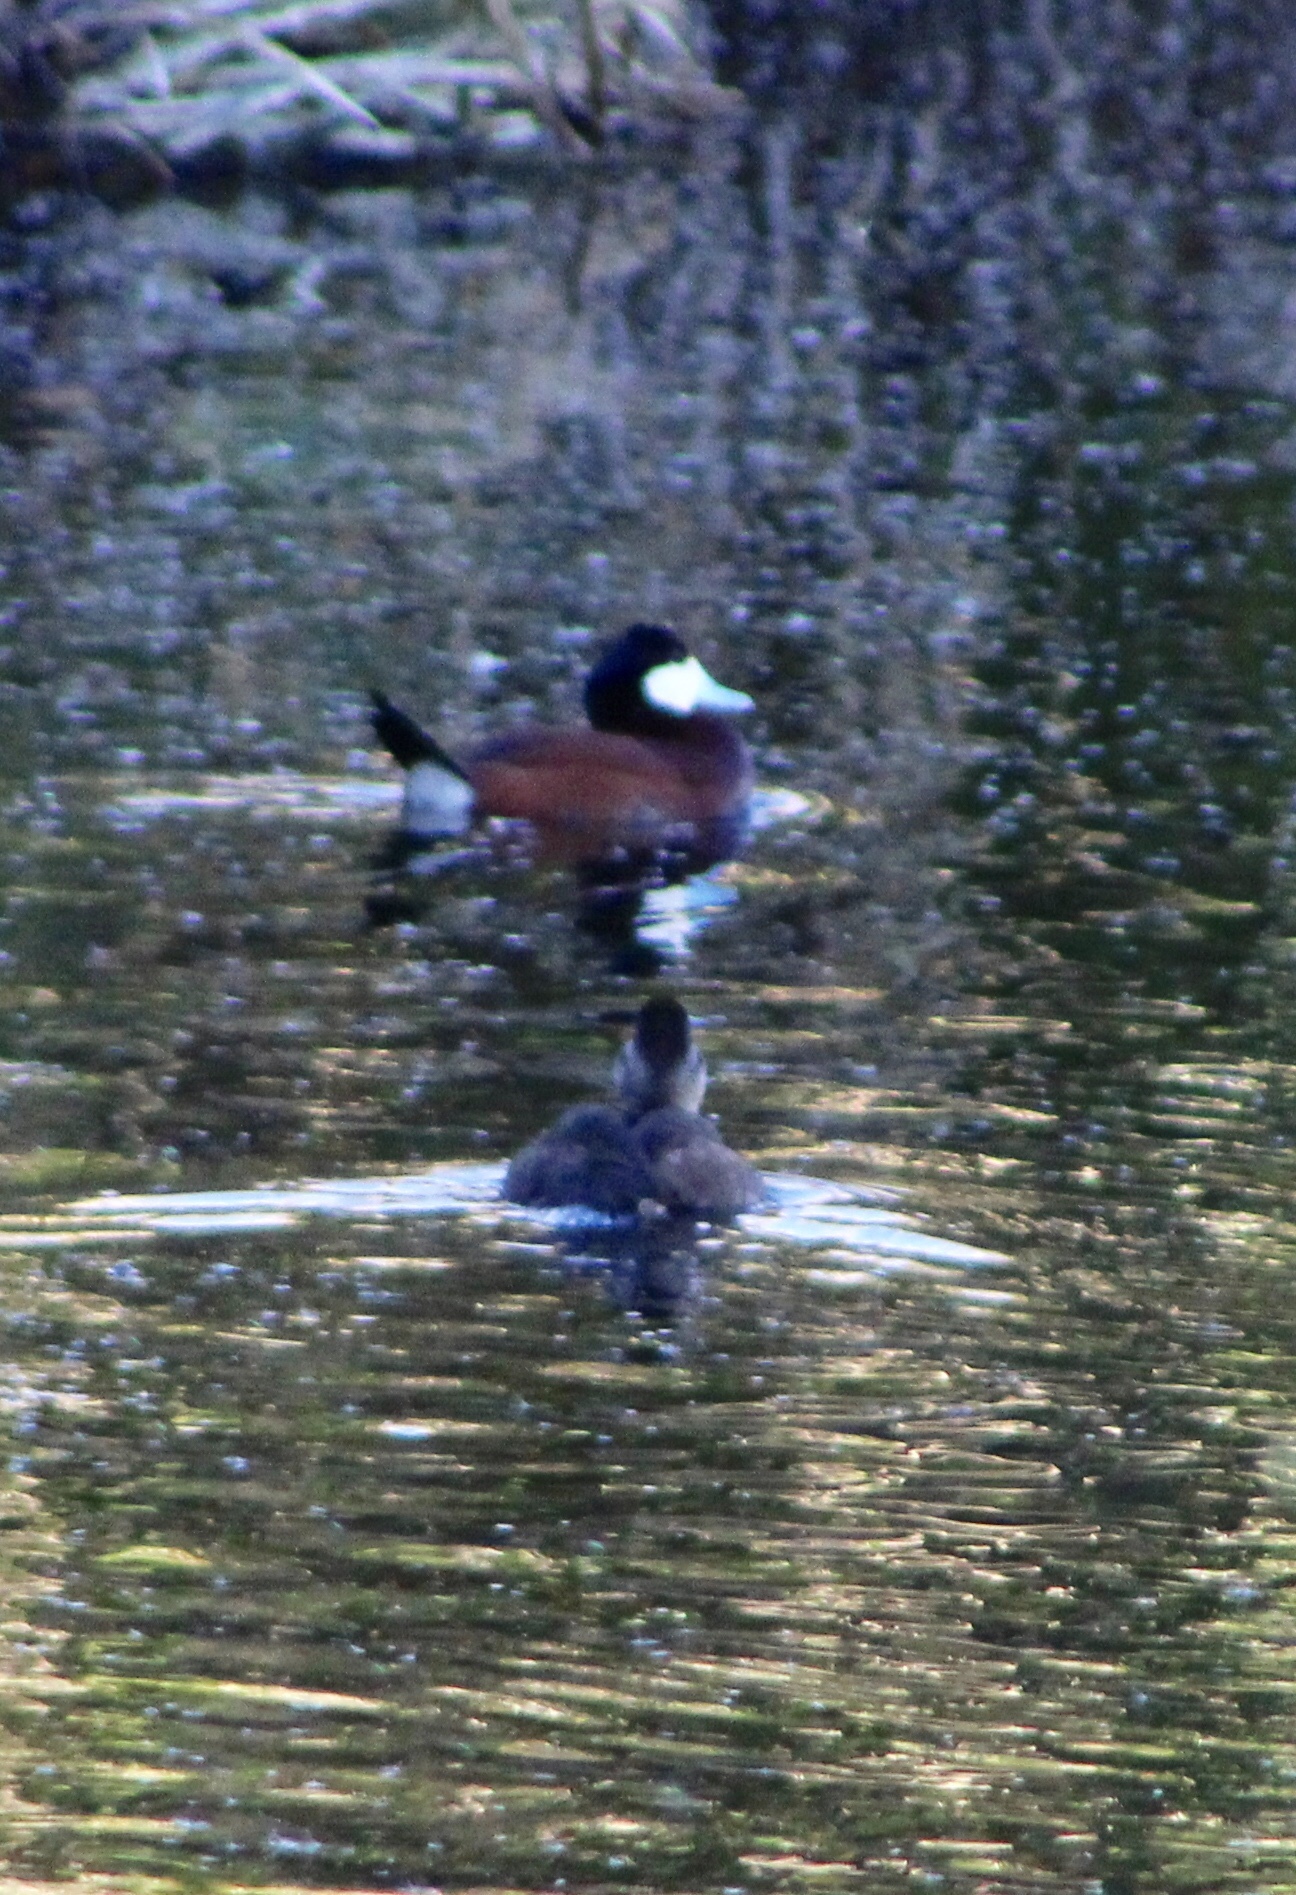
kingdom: Animalia
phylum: Chordata
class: Aves
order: Anseriformes
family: Anatidae
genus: Oxyura
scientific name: Oxyura jamaicensis
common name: Ruddy duck
